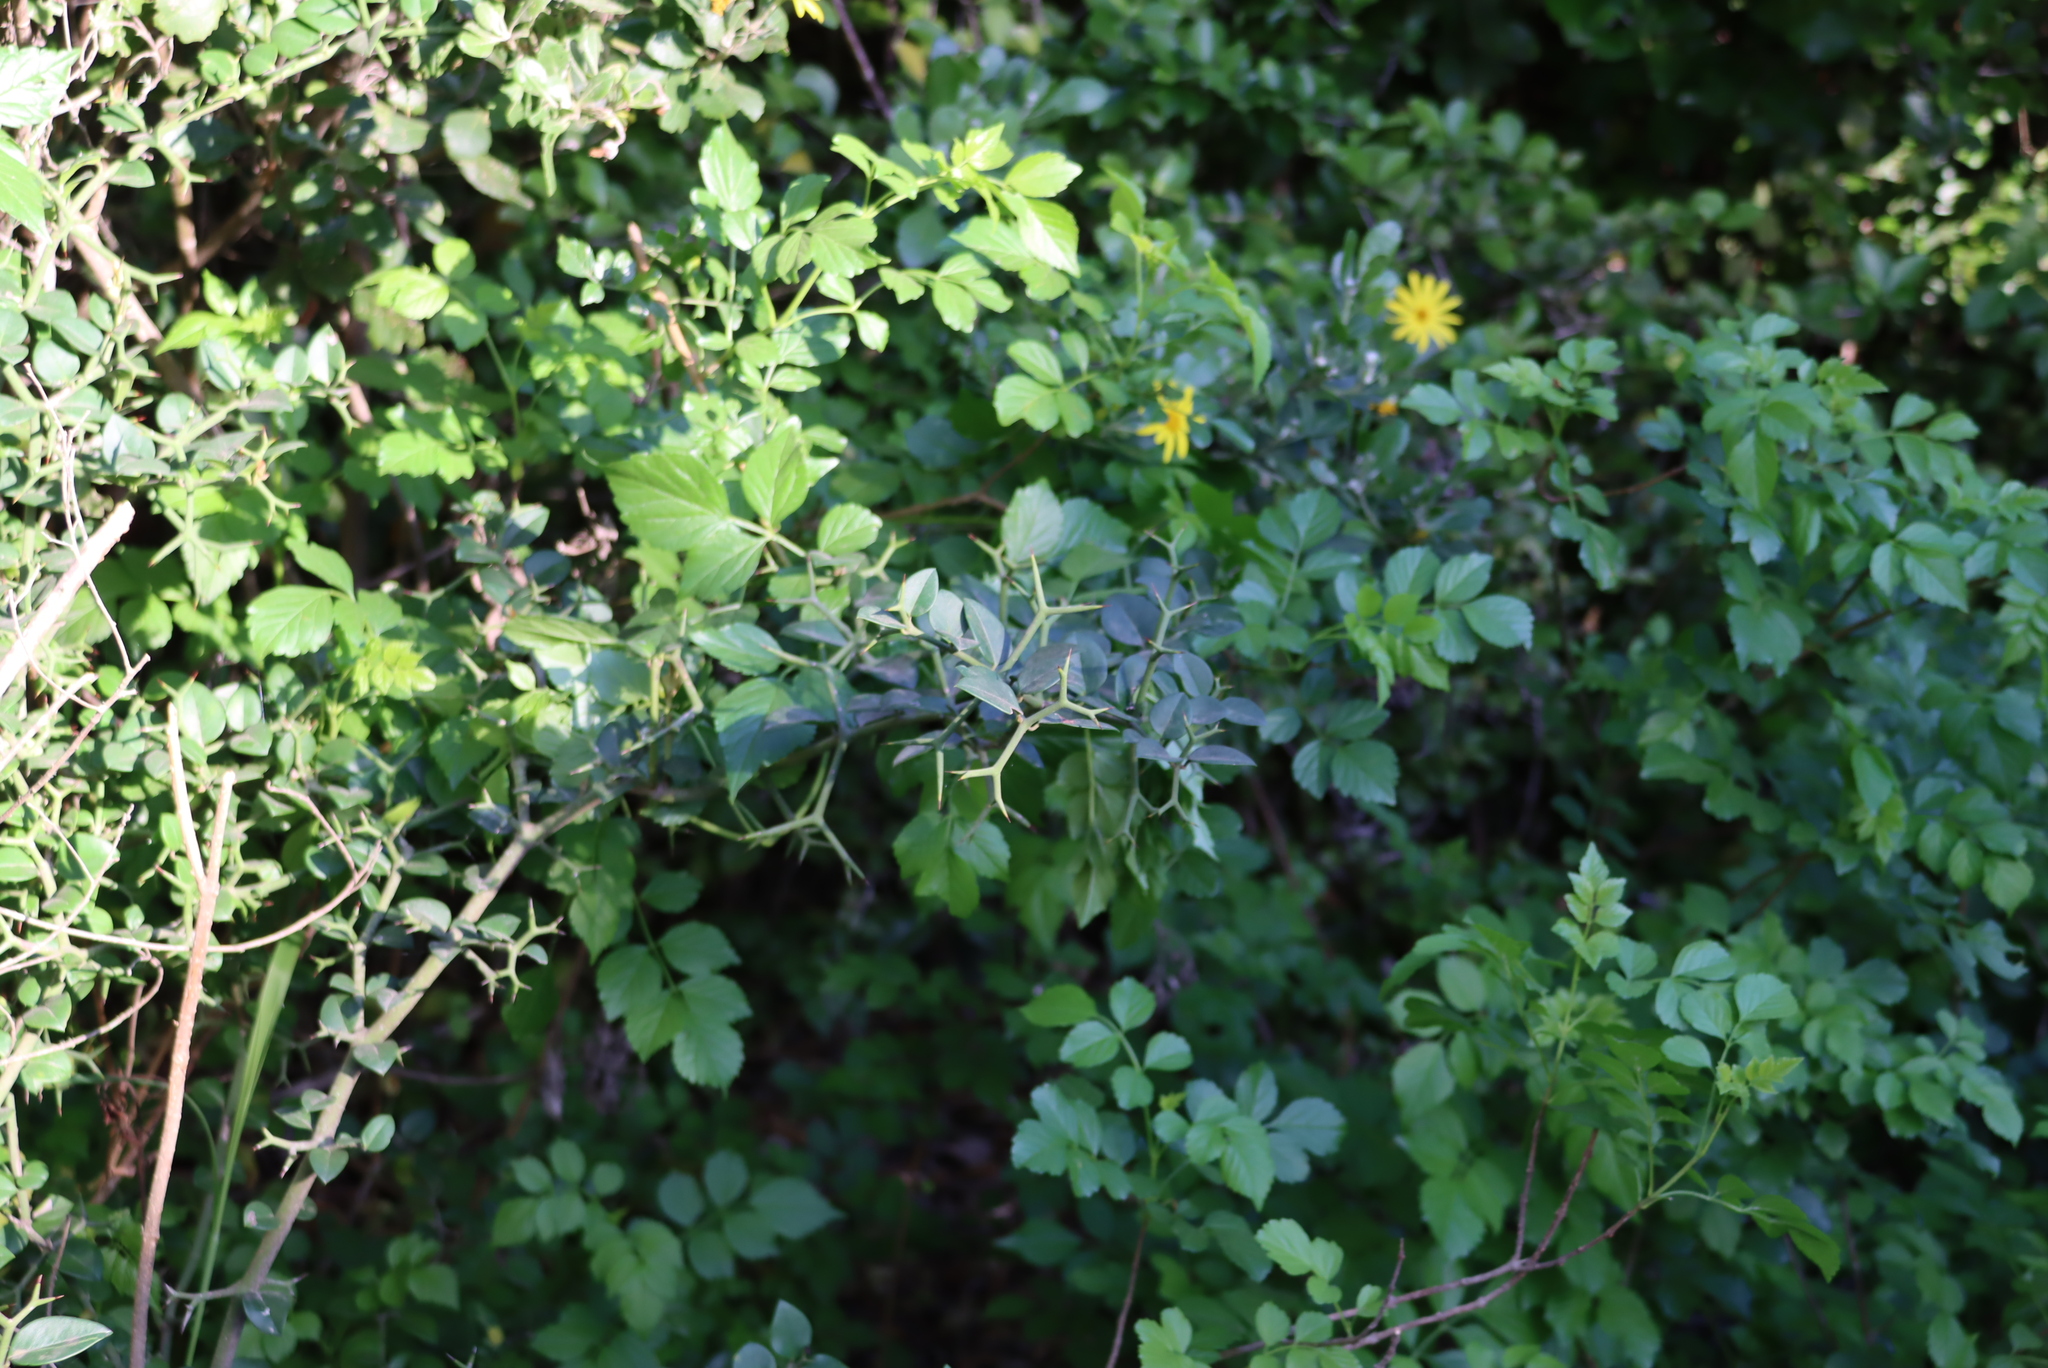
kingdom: Plantae
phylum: Tracheophyta
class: Magnoliopsida
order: Gentianales
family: Apocynaceae
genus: Carissa
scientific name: Carissa bispinosa
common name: Forest num-num
